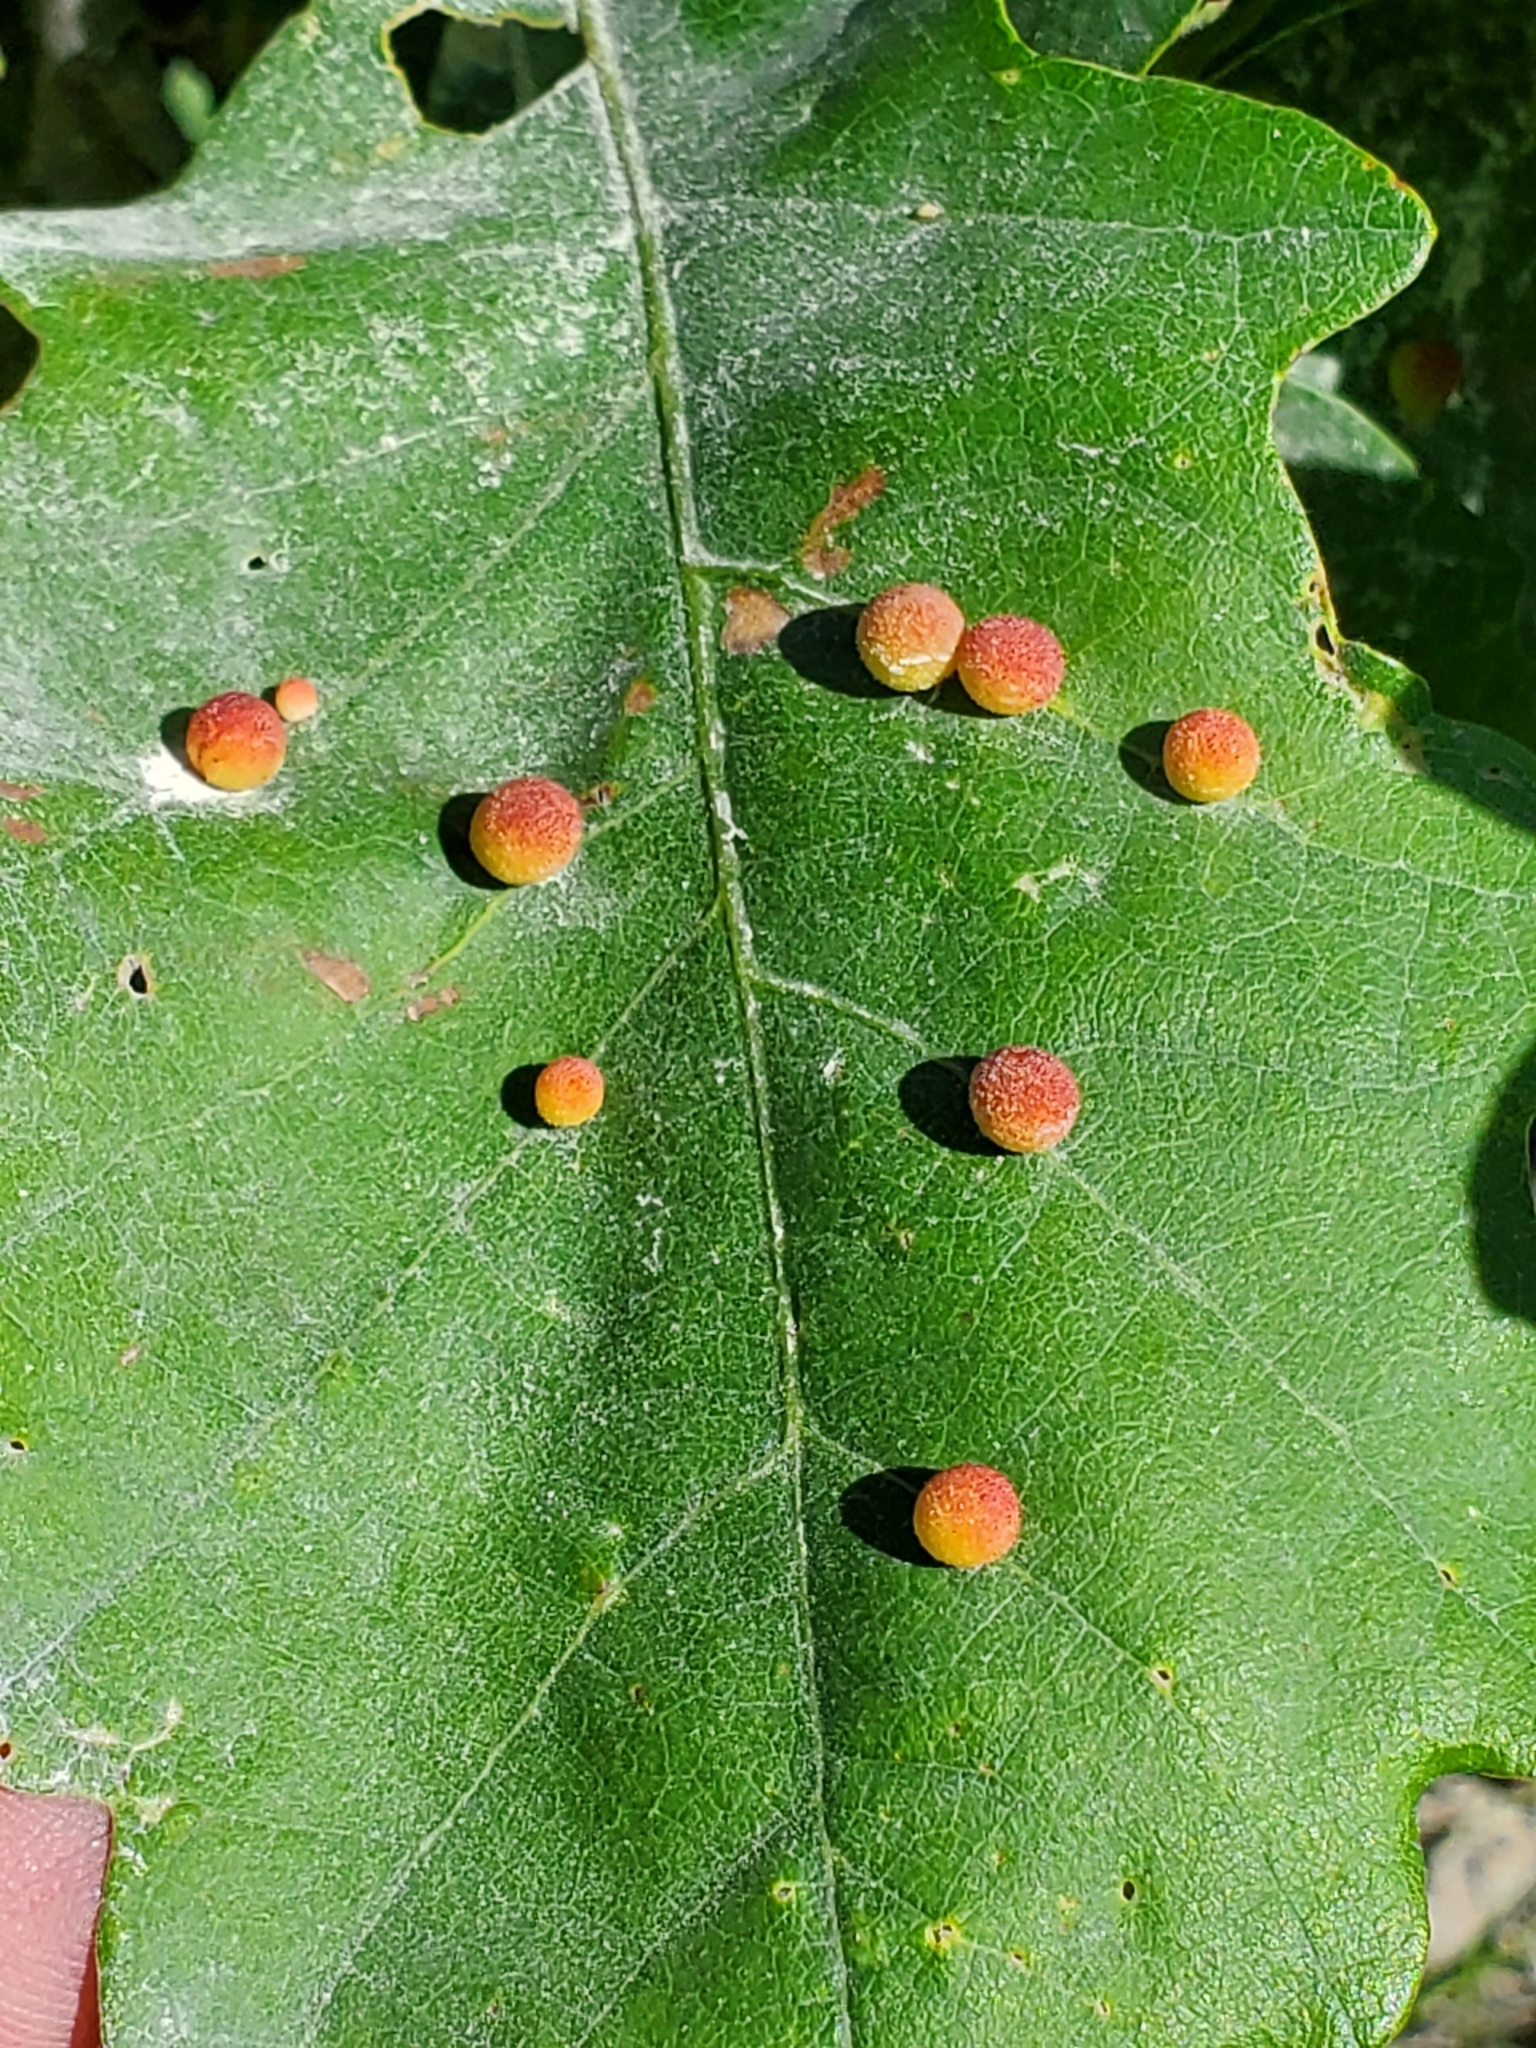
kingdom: Animalia
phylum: Arthropoda
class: Insecta
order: Hymenoptera
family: Cynipidae
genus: Acraspis
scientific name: Acraspis quercushirta
